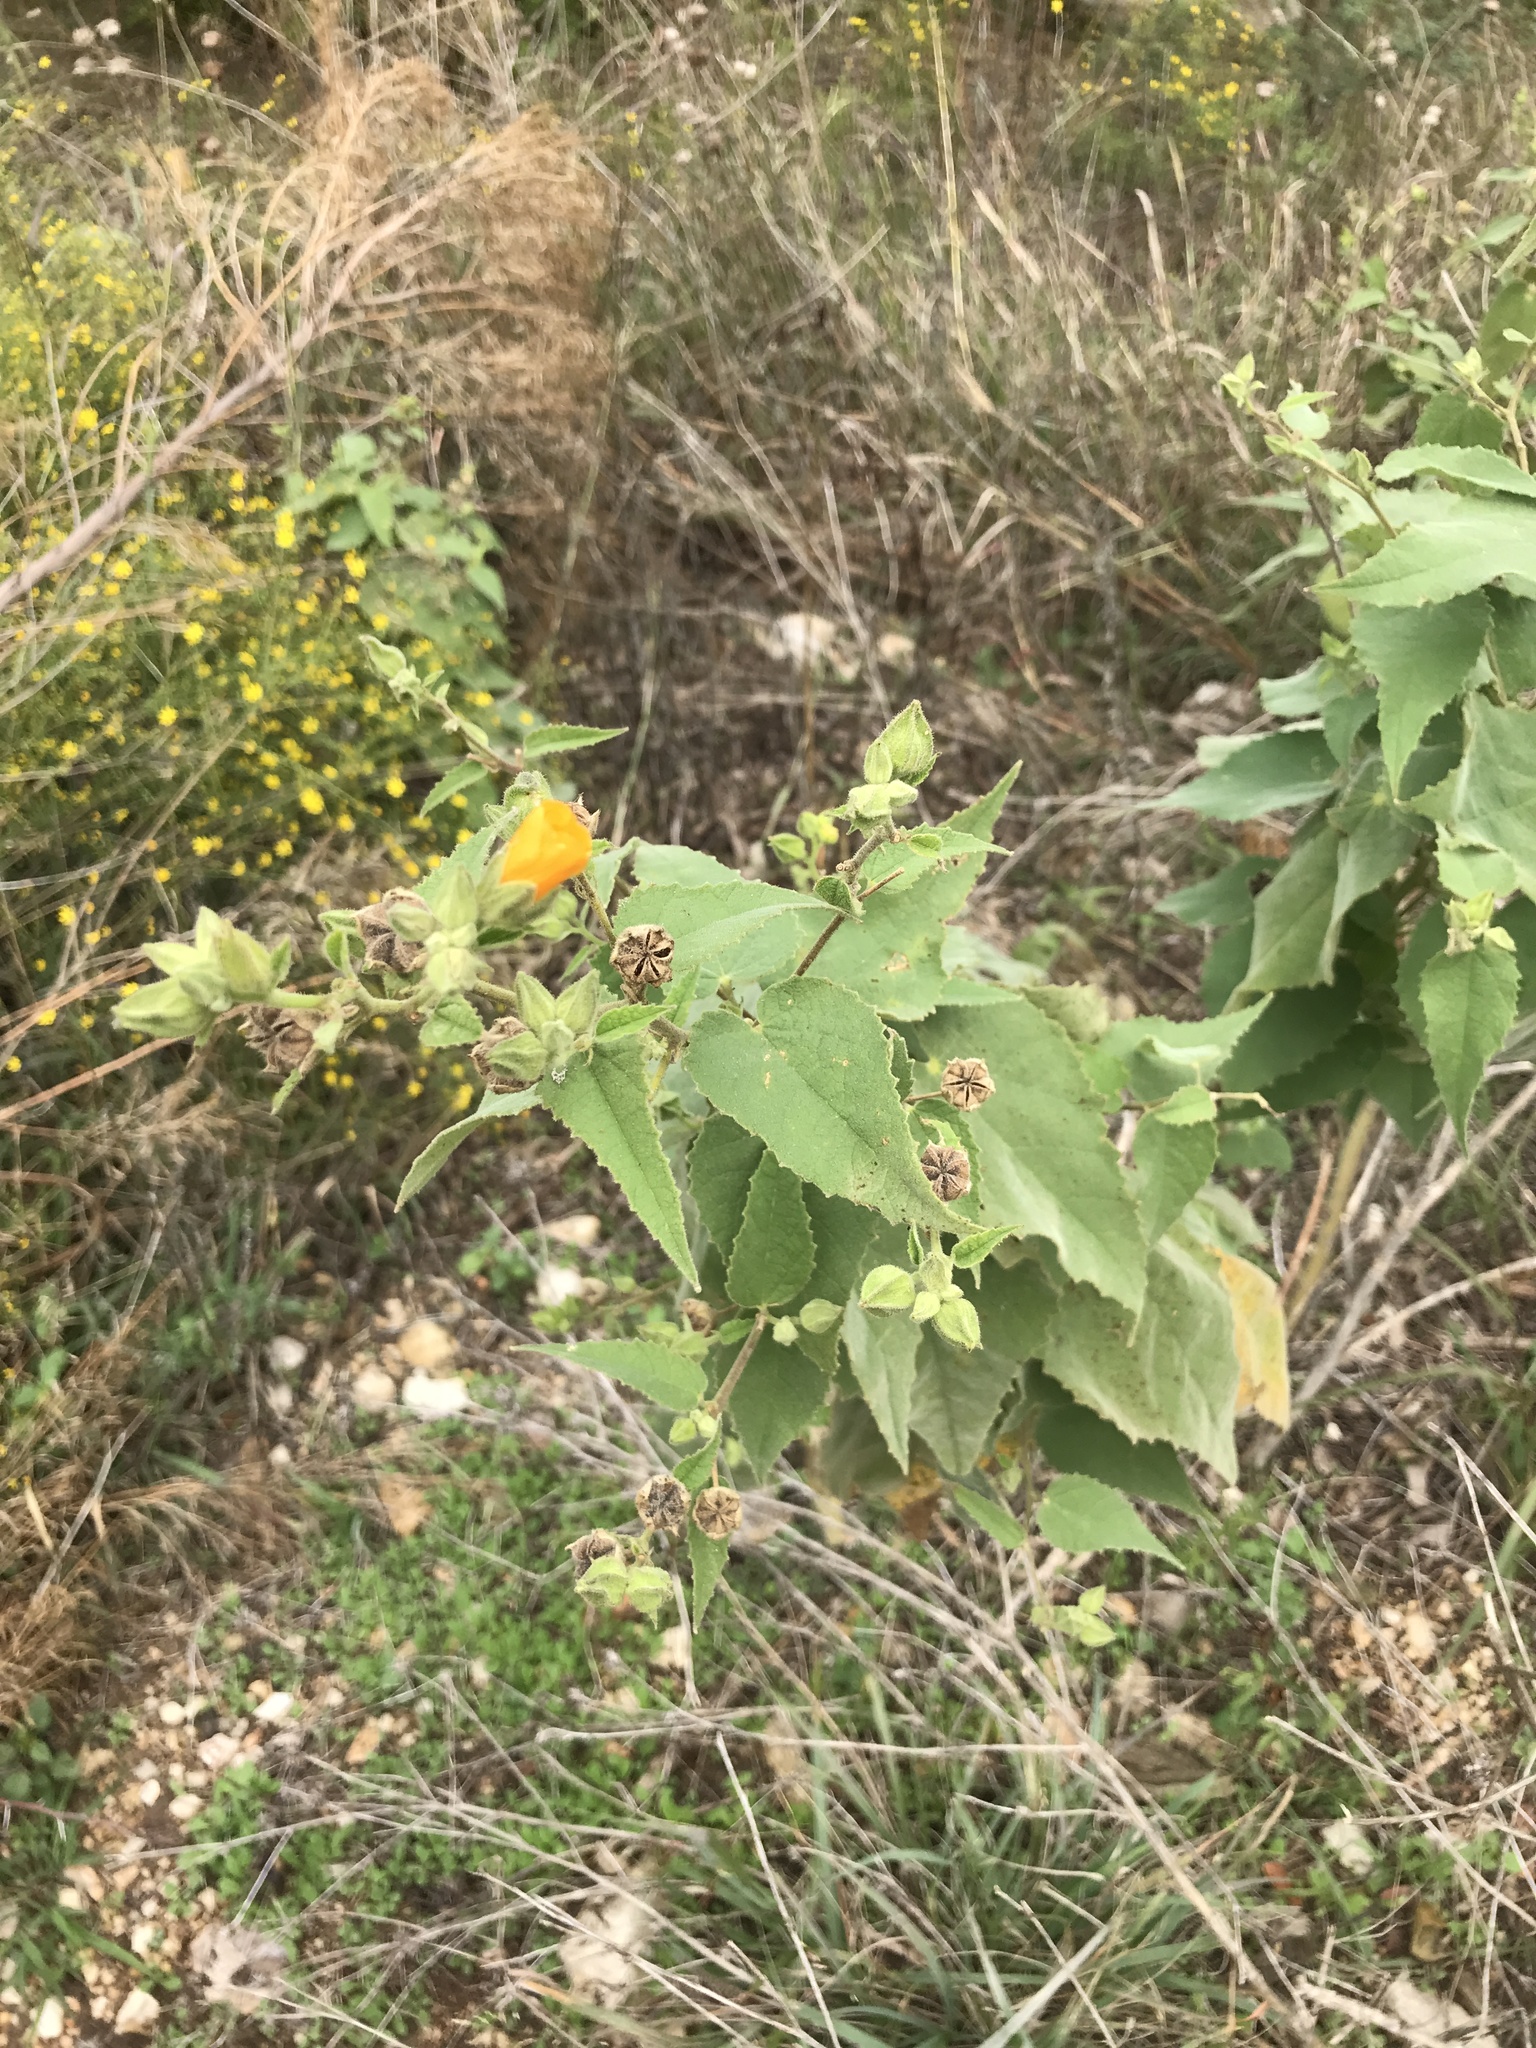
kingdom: Plantae
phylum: Tracheophyta
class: Magnoliopsida
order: Malvales
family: Malvaceae
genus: Allowissadula
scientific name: Allowissadula holosericea
